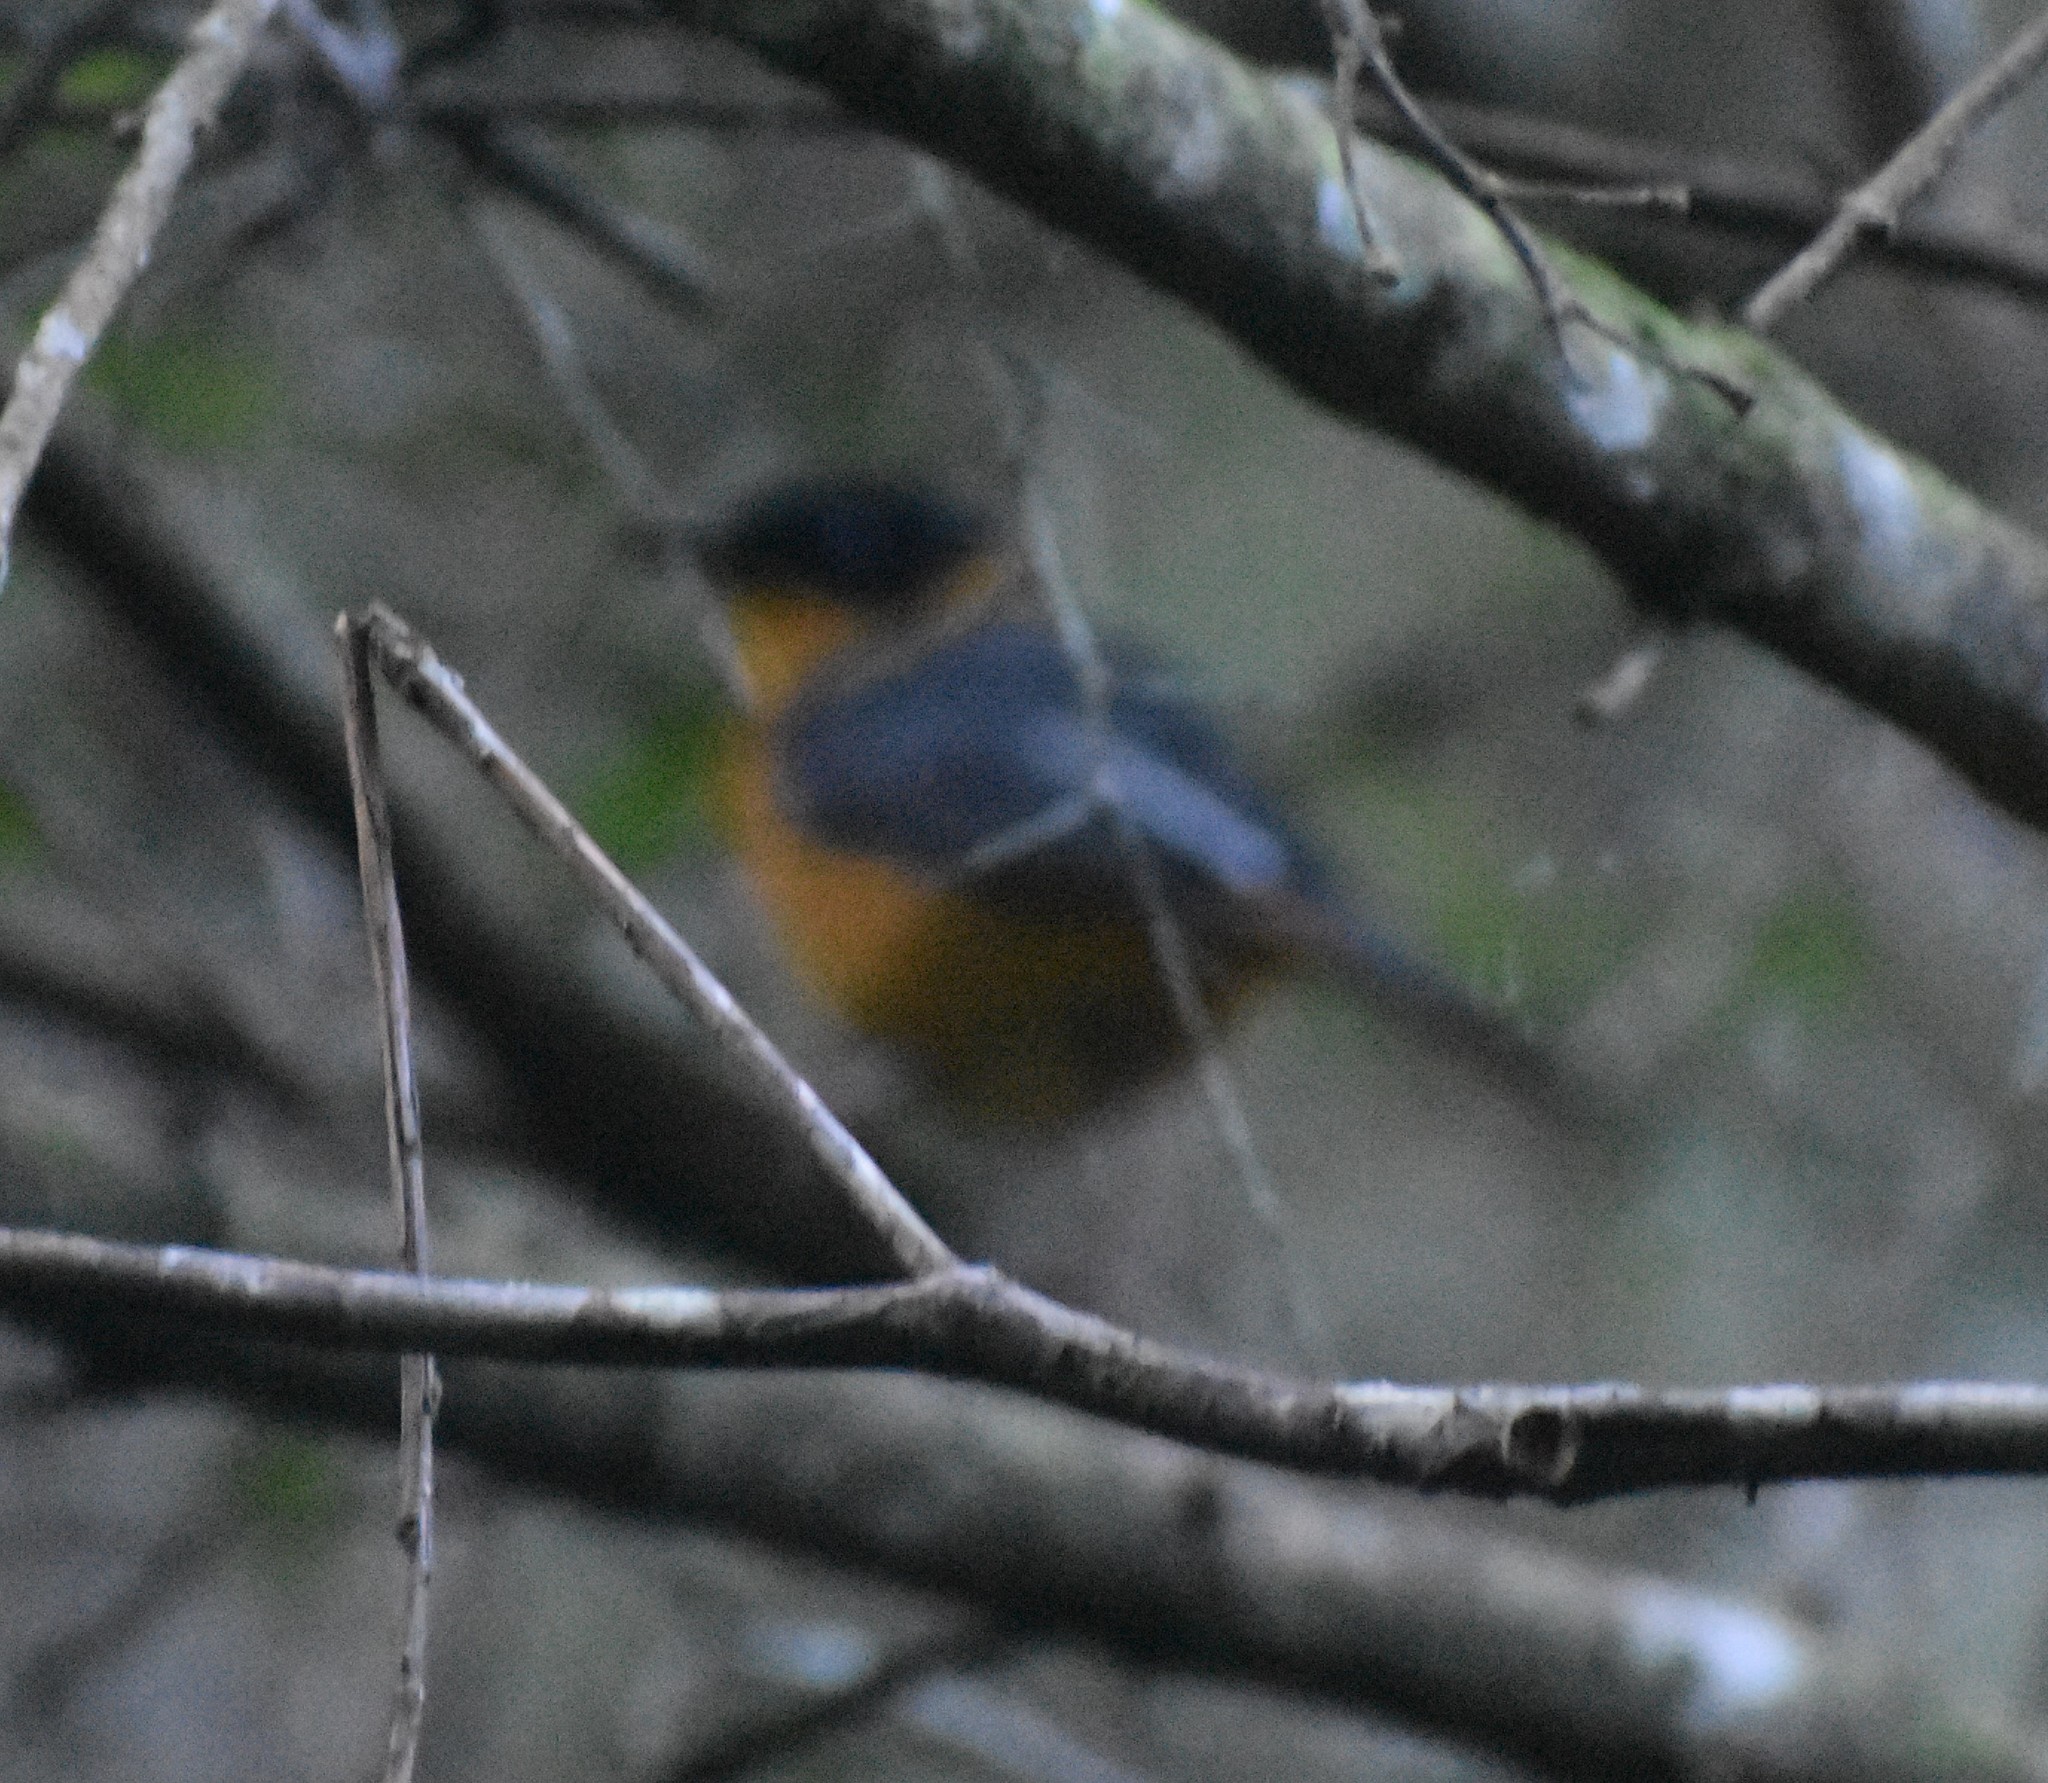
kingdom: Animalia
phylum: Chordata
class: Aves
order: Passeriformes
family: Muscicapidae
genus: Cossypha
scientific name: Cossypha dichroa
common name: Chorister robin-chat
